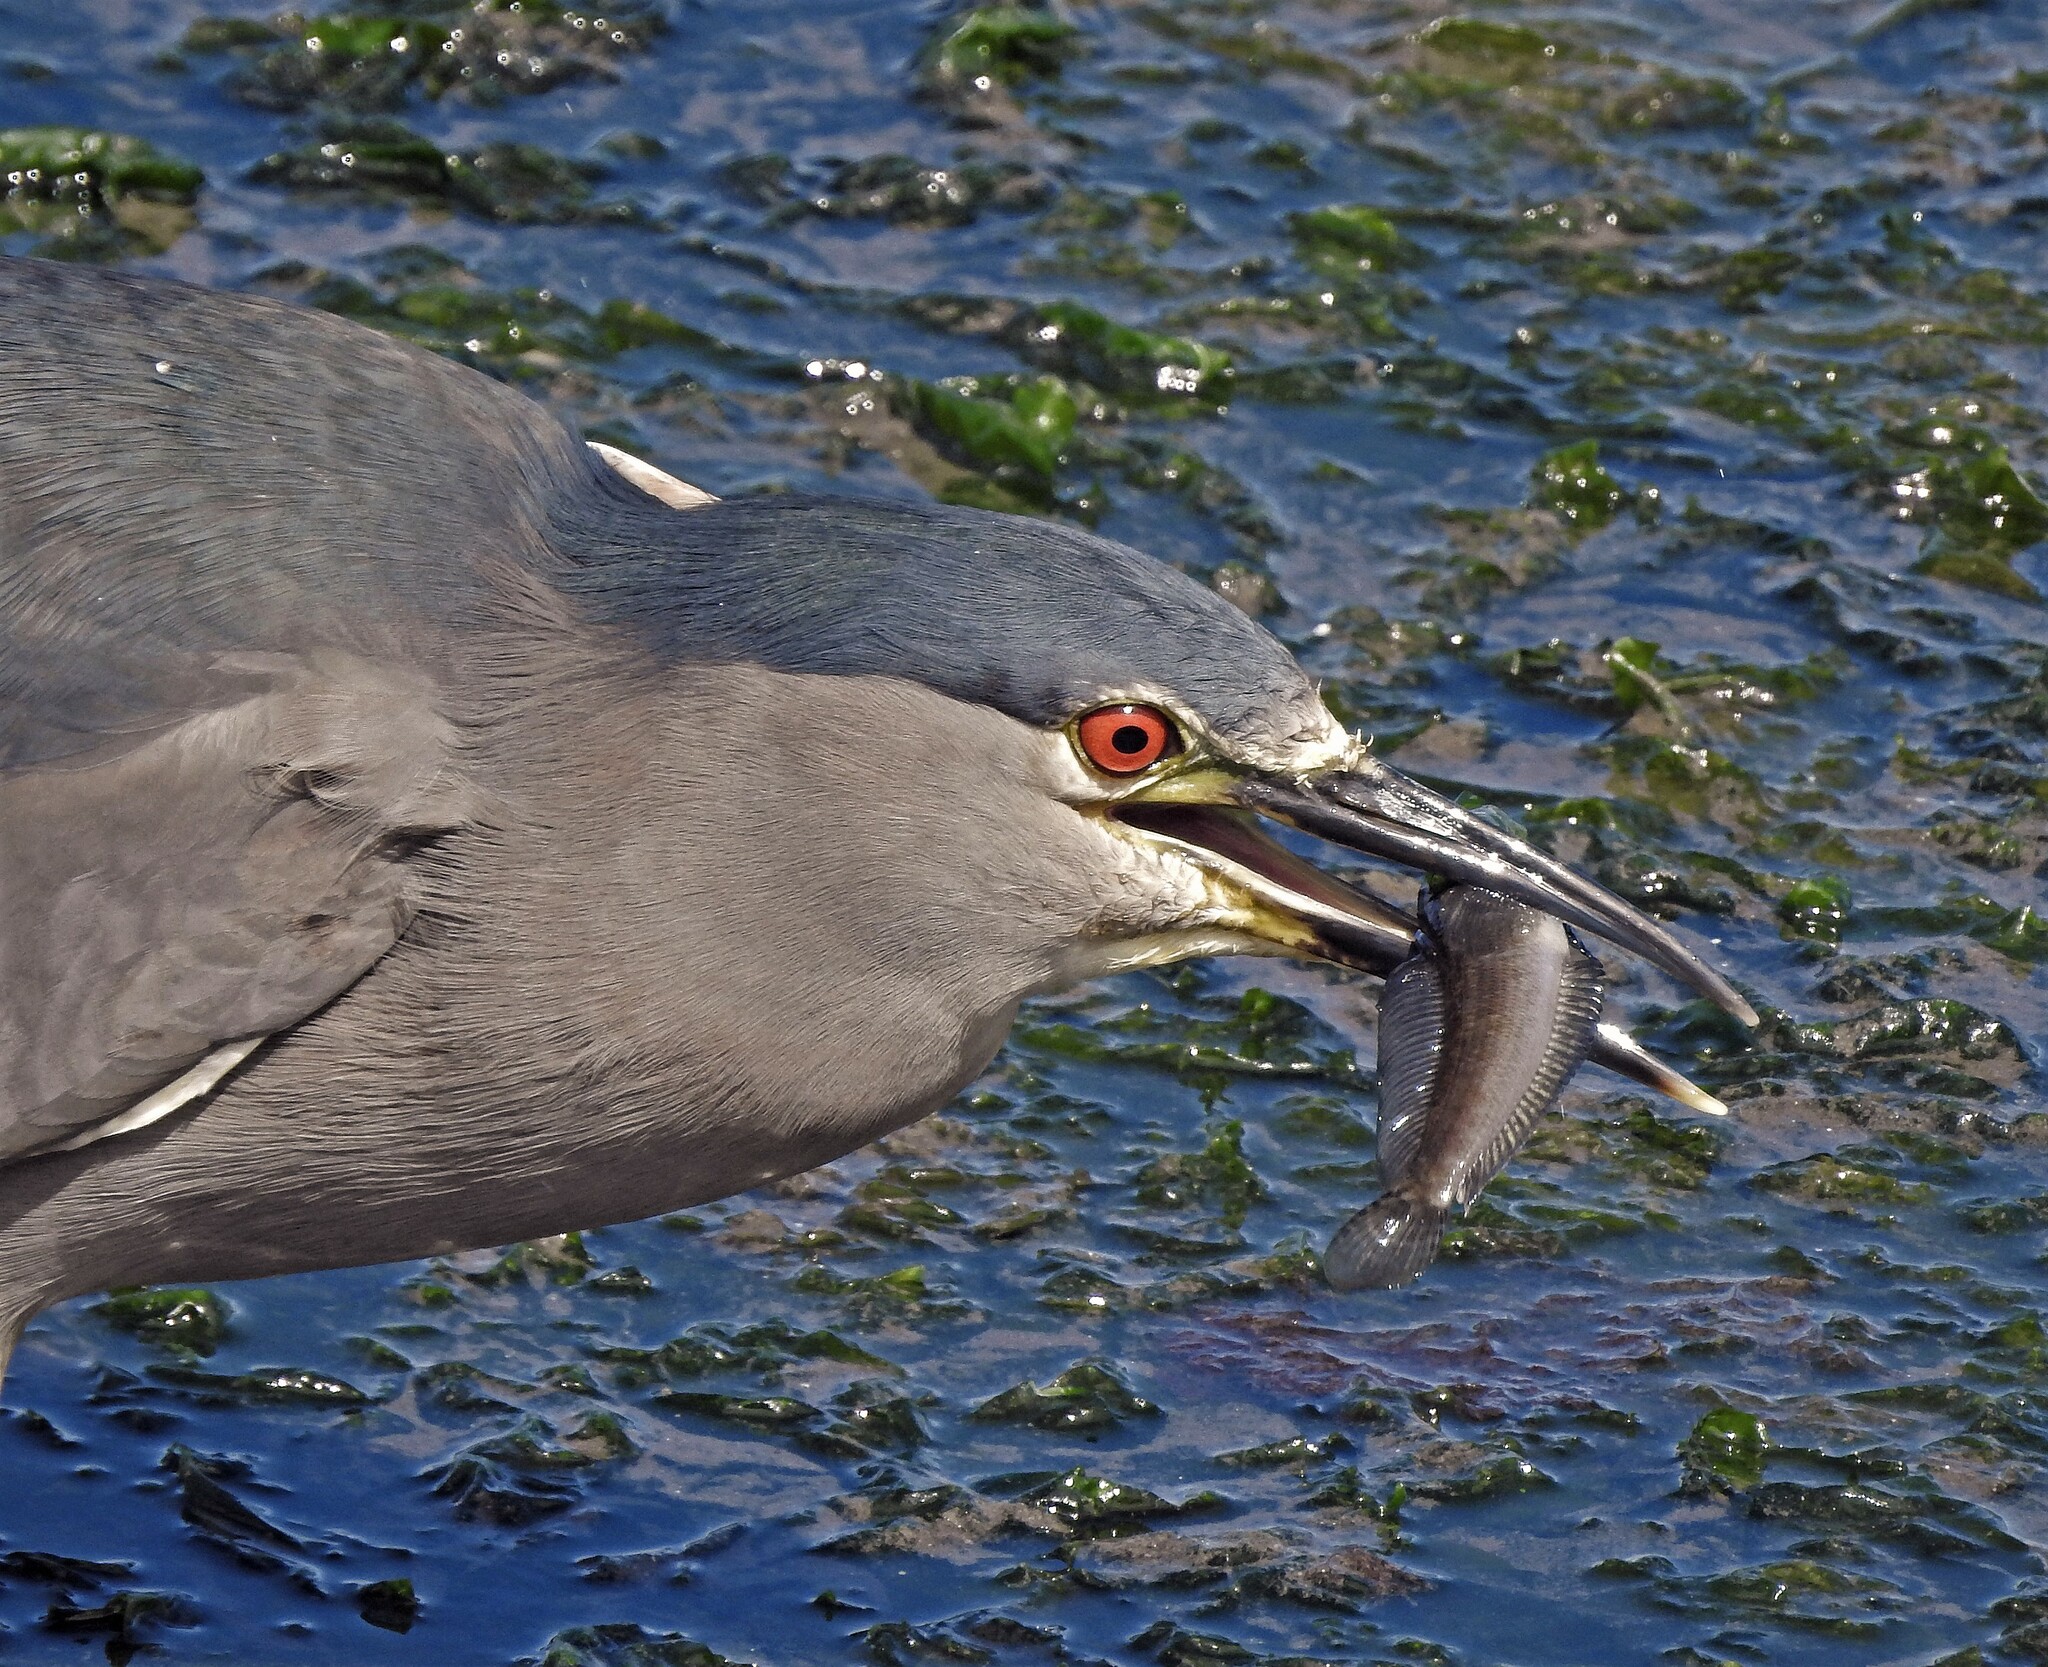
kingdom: Animalia
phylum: Chordata
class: Aves
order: Pelecaniformes
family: Ardeidae
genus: Nycticorax
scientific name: Nycticorax nycticorax
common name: Black-crowned night heron
